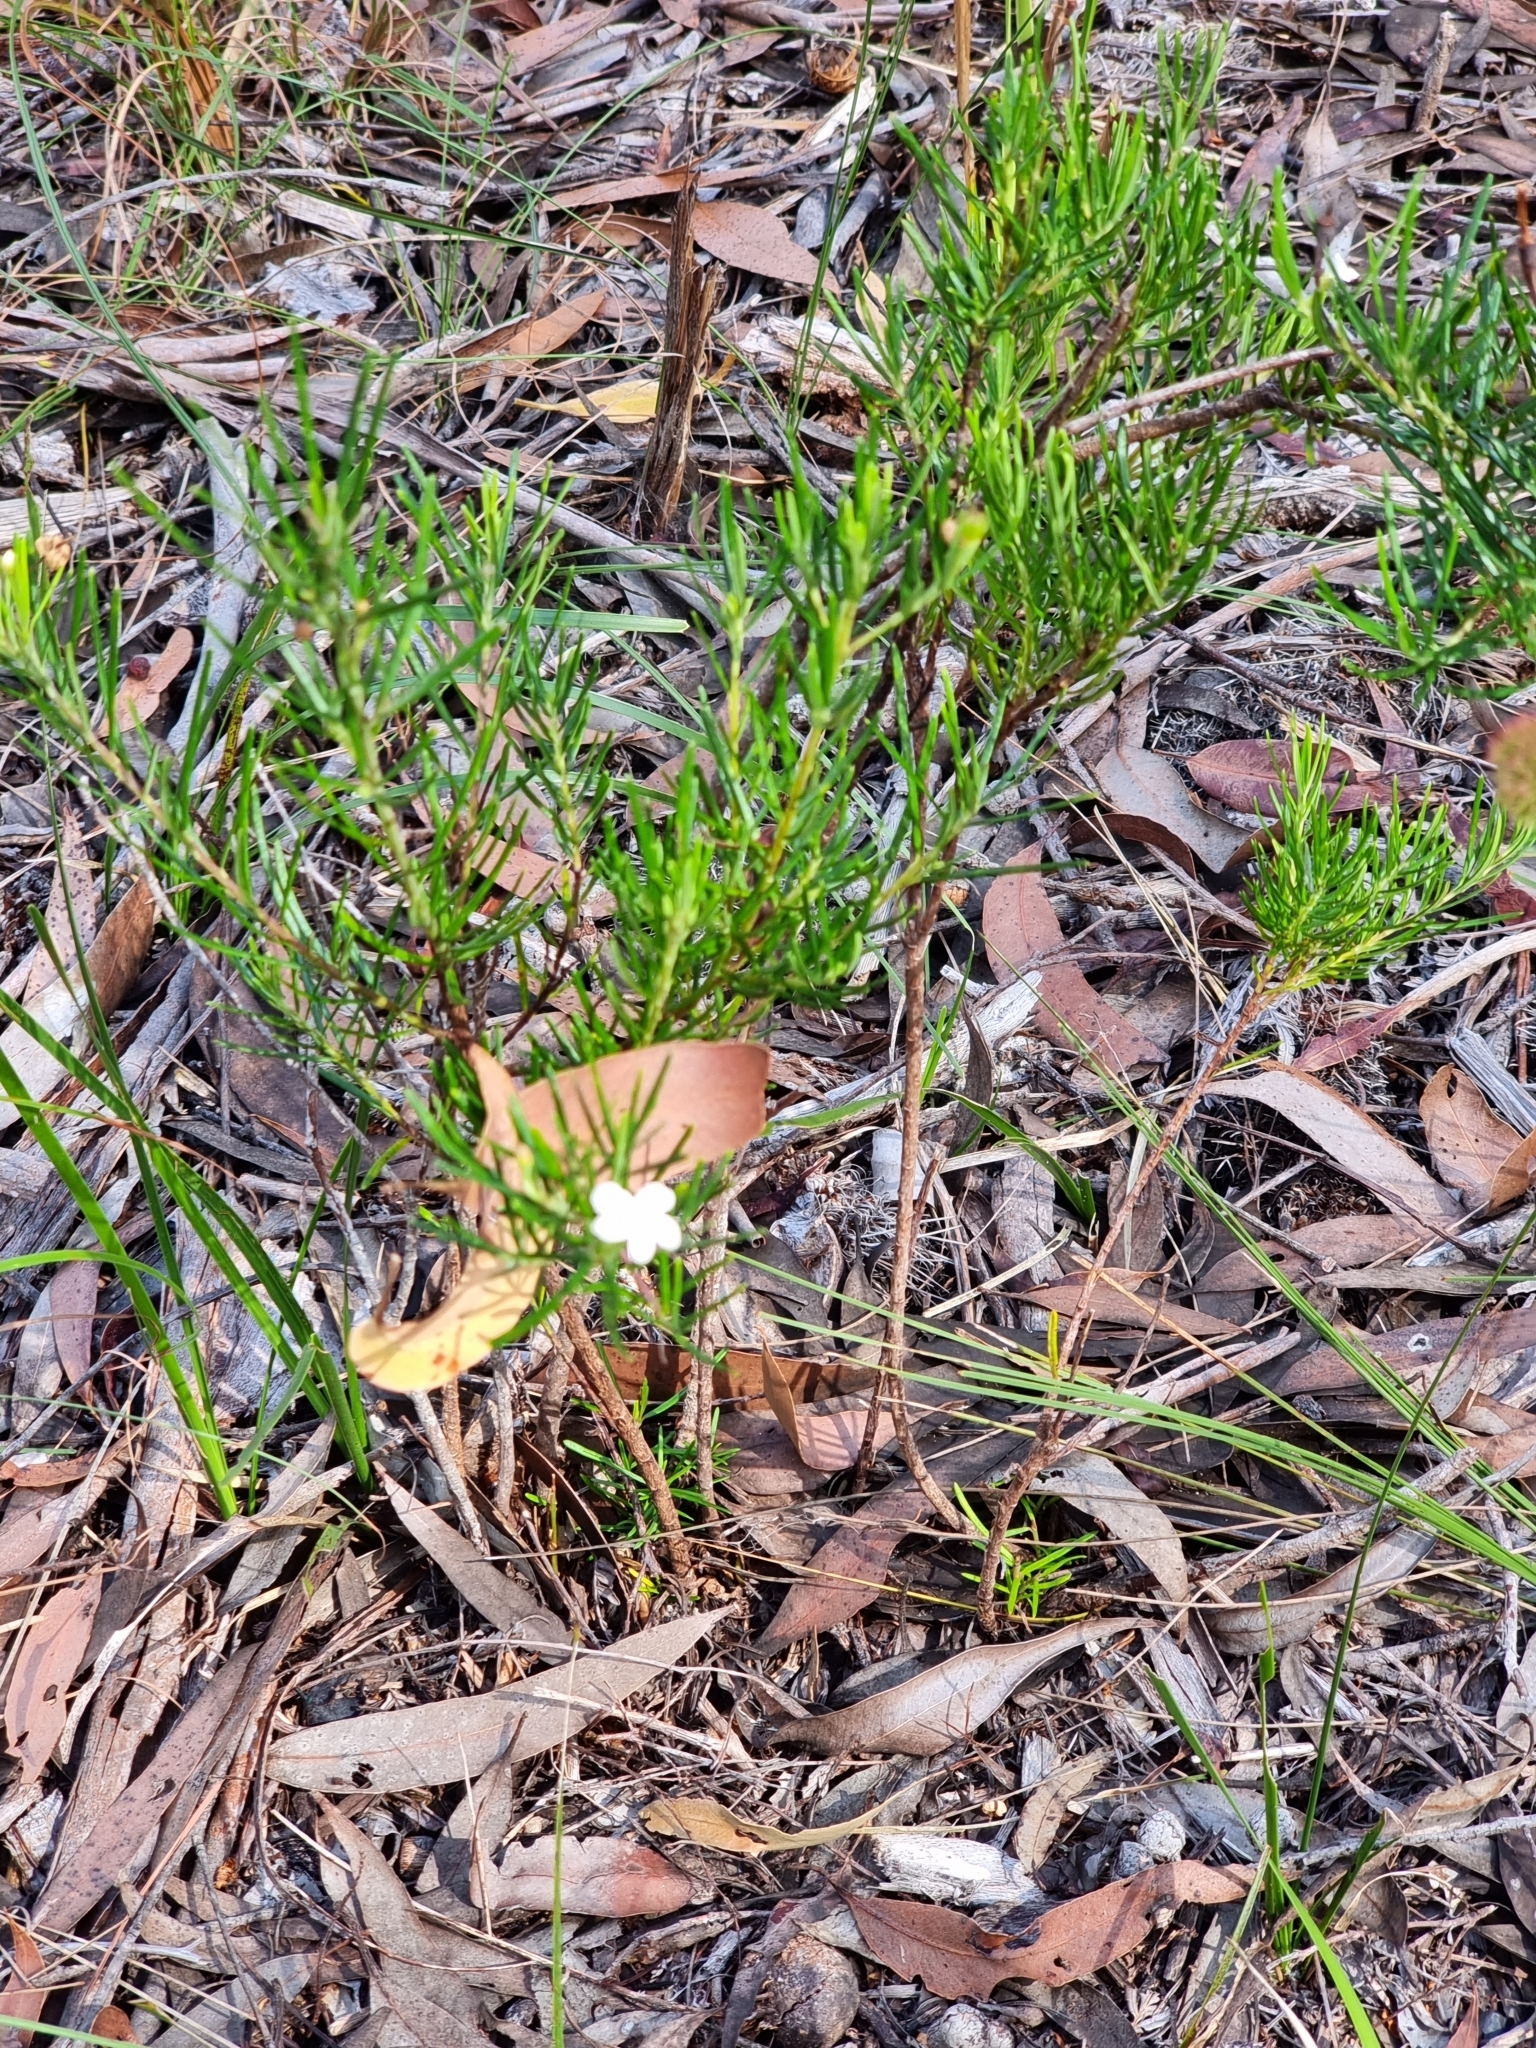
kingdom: Plantae
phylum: Tracheophyta
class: Magnoliopsida
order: Malpighiales
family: Euphorbiaceae
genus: Ricinocarpos
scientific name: Ricinocarpos pinifolius
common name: Weddingbush
